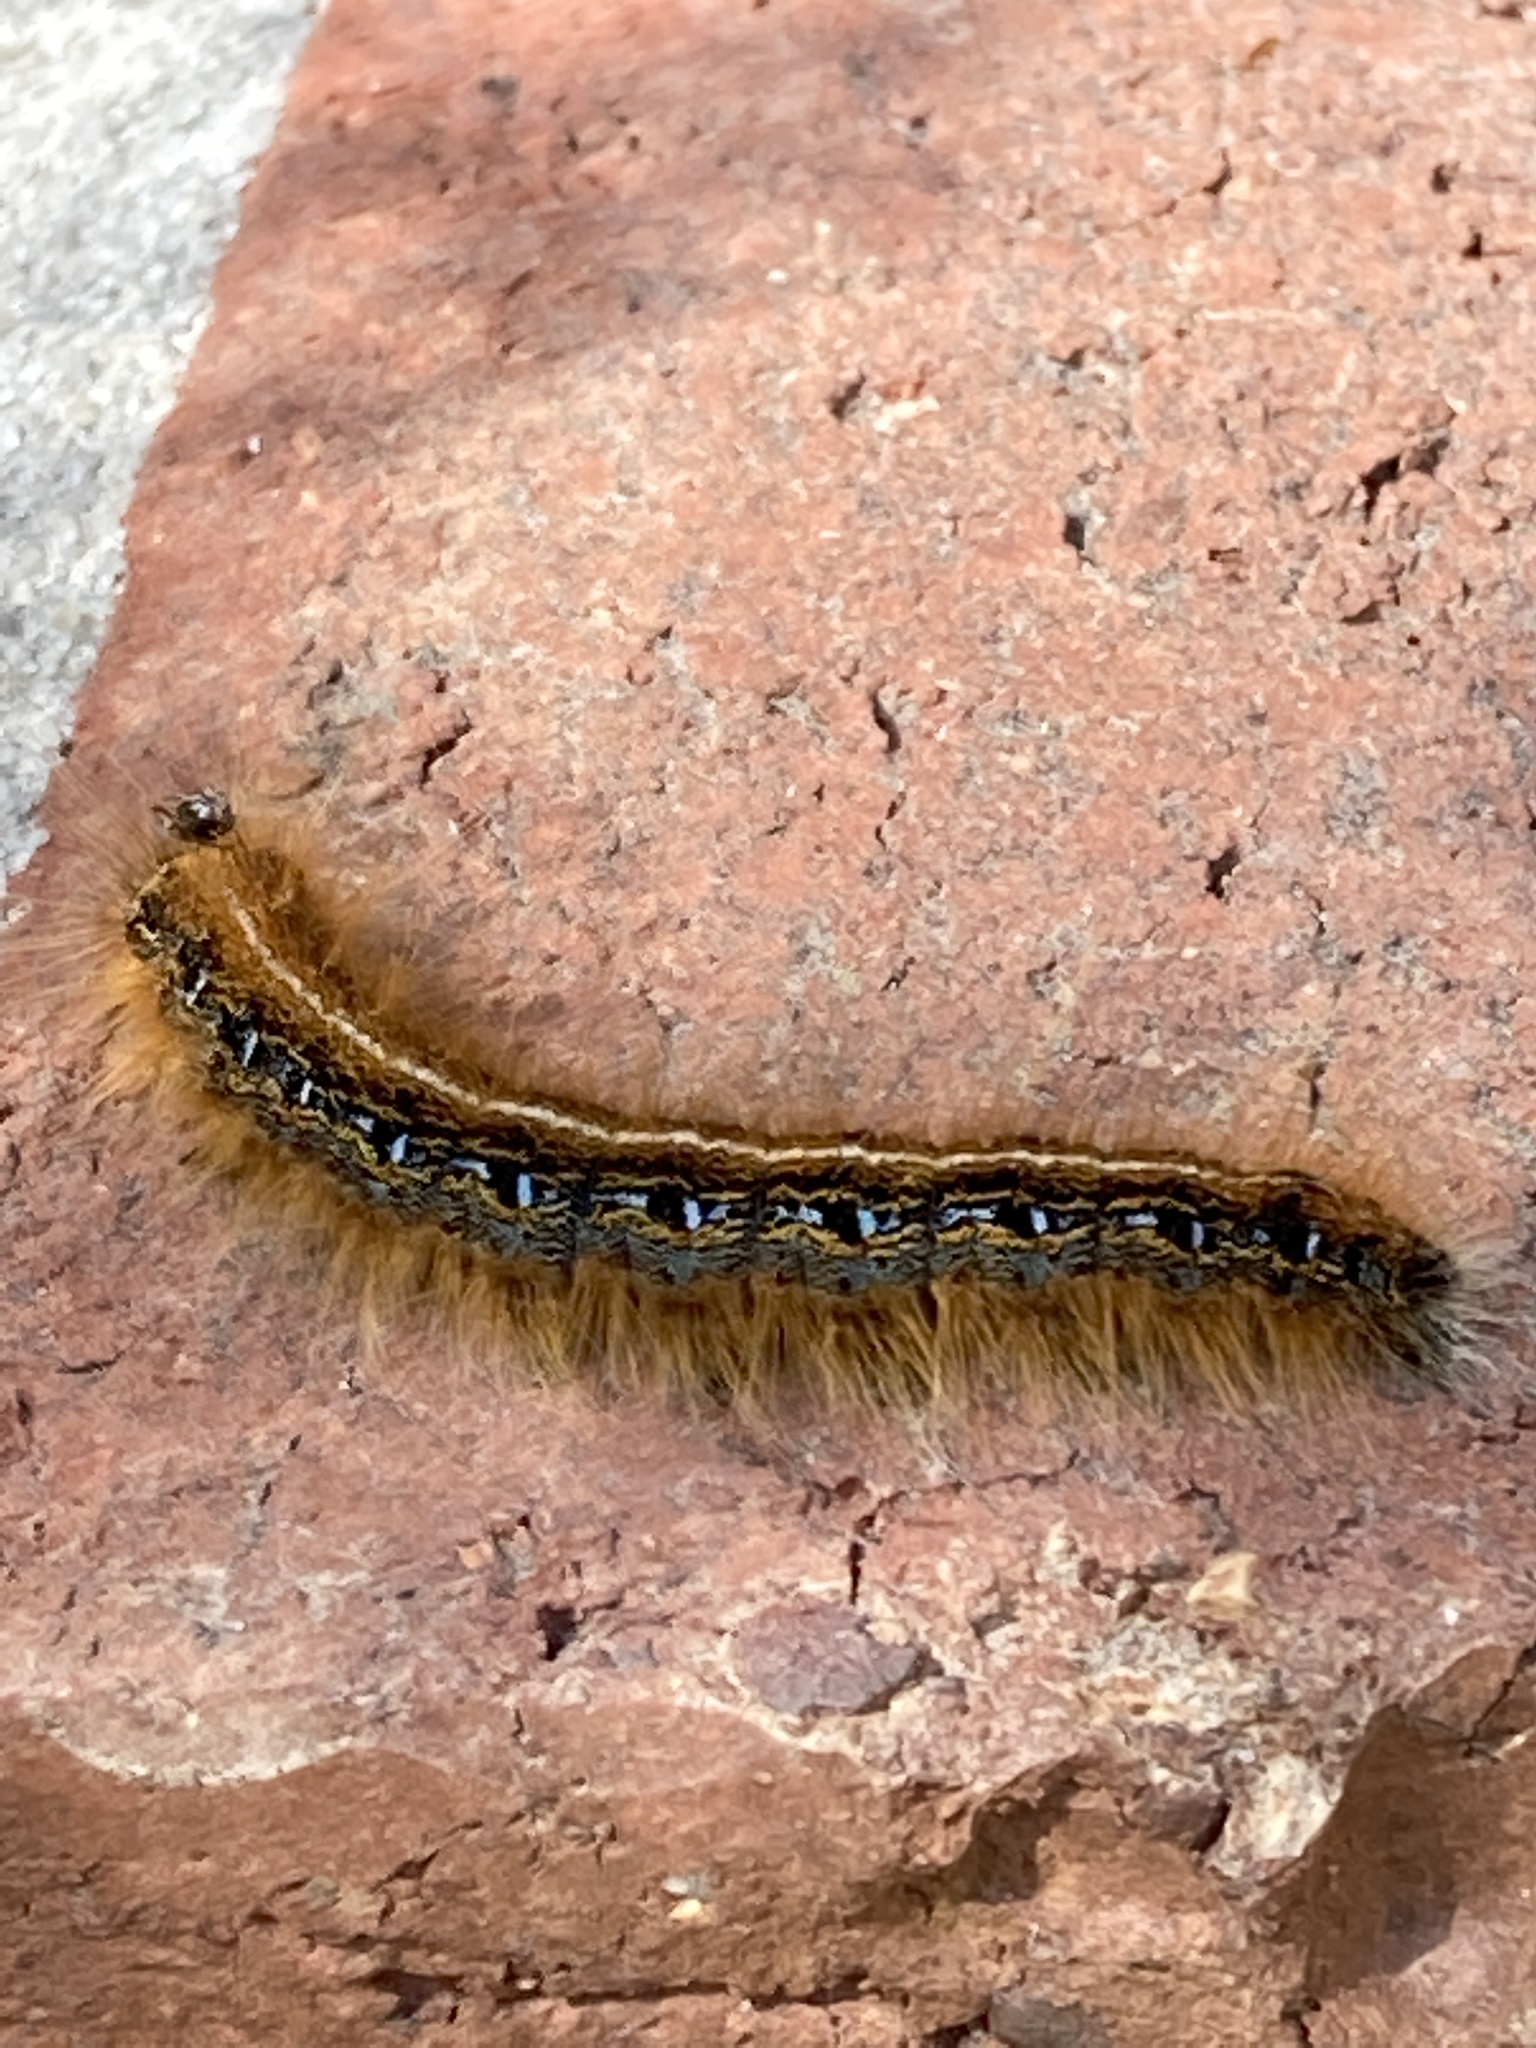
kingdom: Animalia
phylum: Arthropoda
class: Insecta
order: Lepidoptera
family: Lasiocampidae
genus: Malacosoma
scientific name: Malacosoma americana
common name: Eastern tent caterpillar moth
